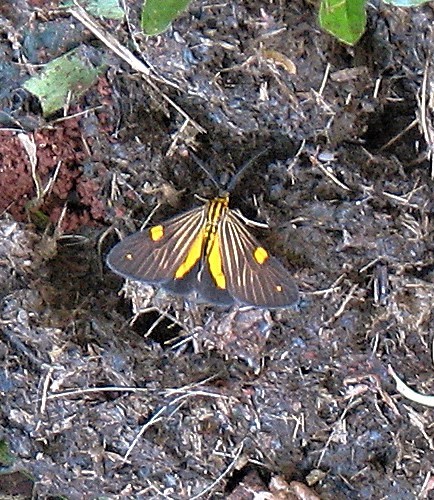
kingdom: Animalia
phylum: Arthropoda
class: Insecta
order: Lepidoptera
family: Notodontidae
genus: Phaeochlaena
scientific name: Phaeochlaena
